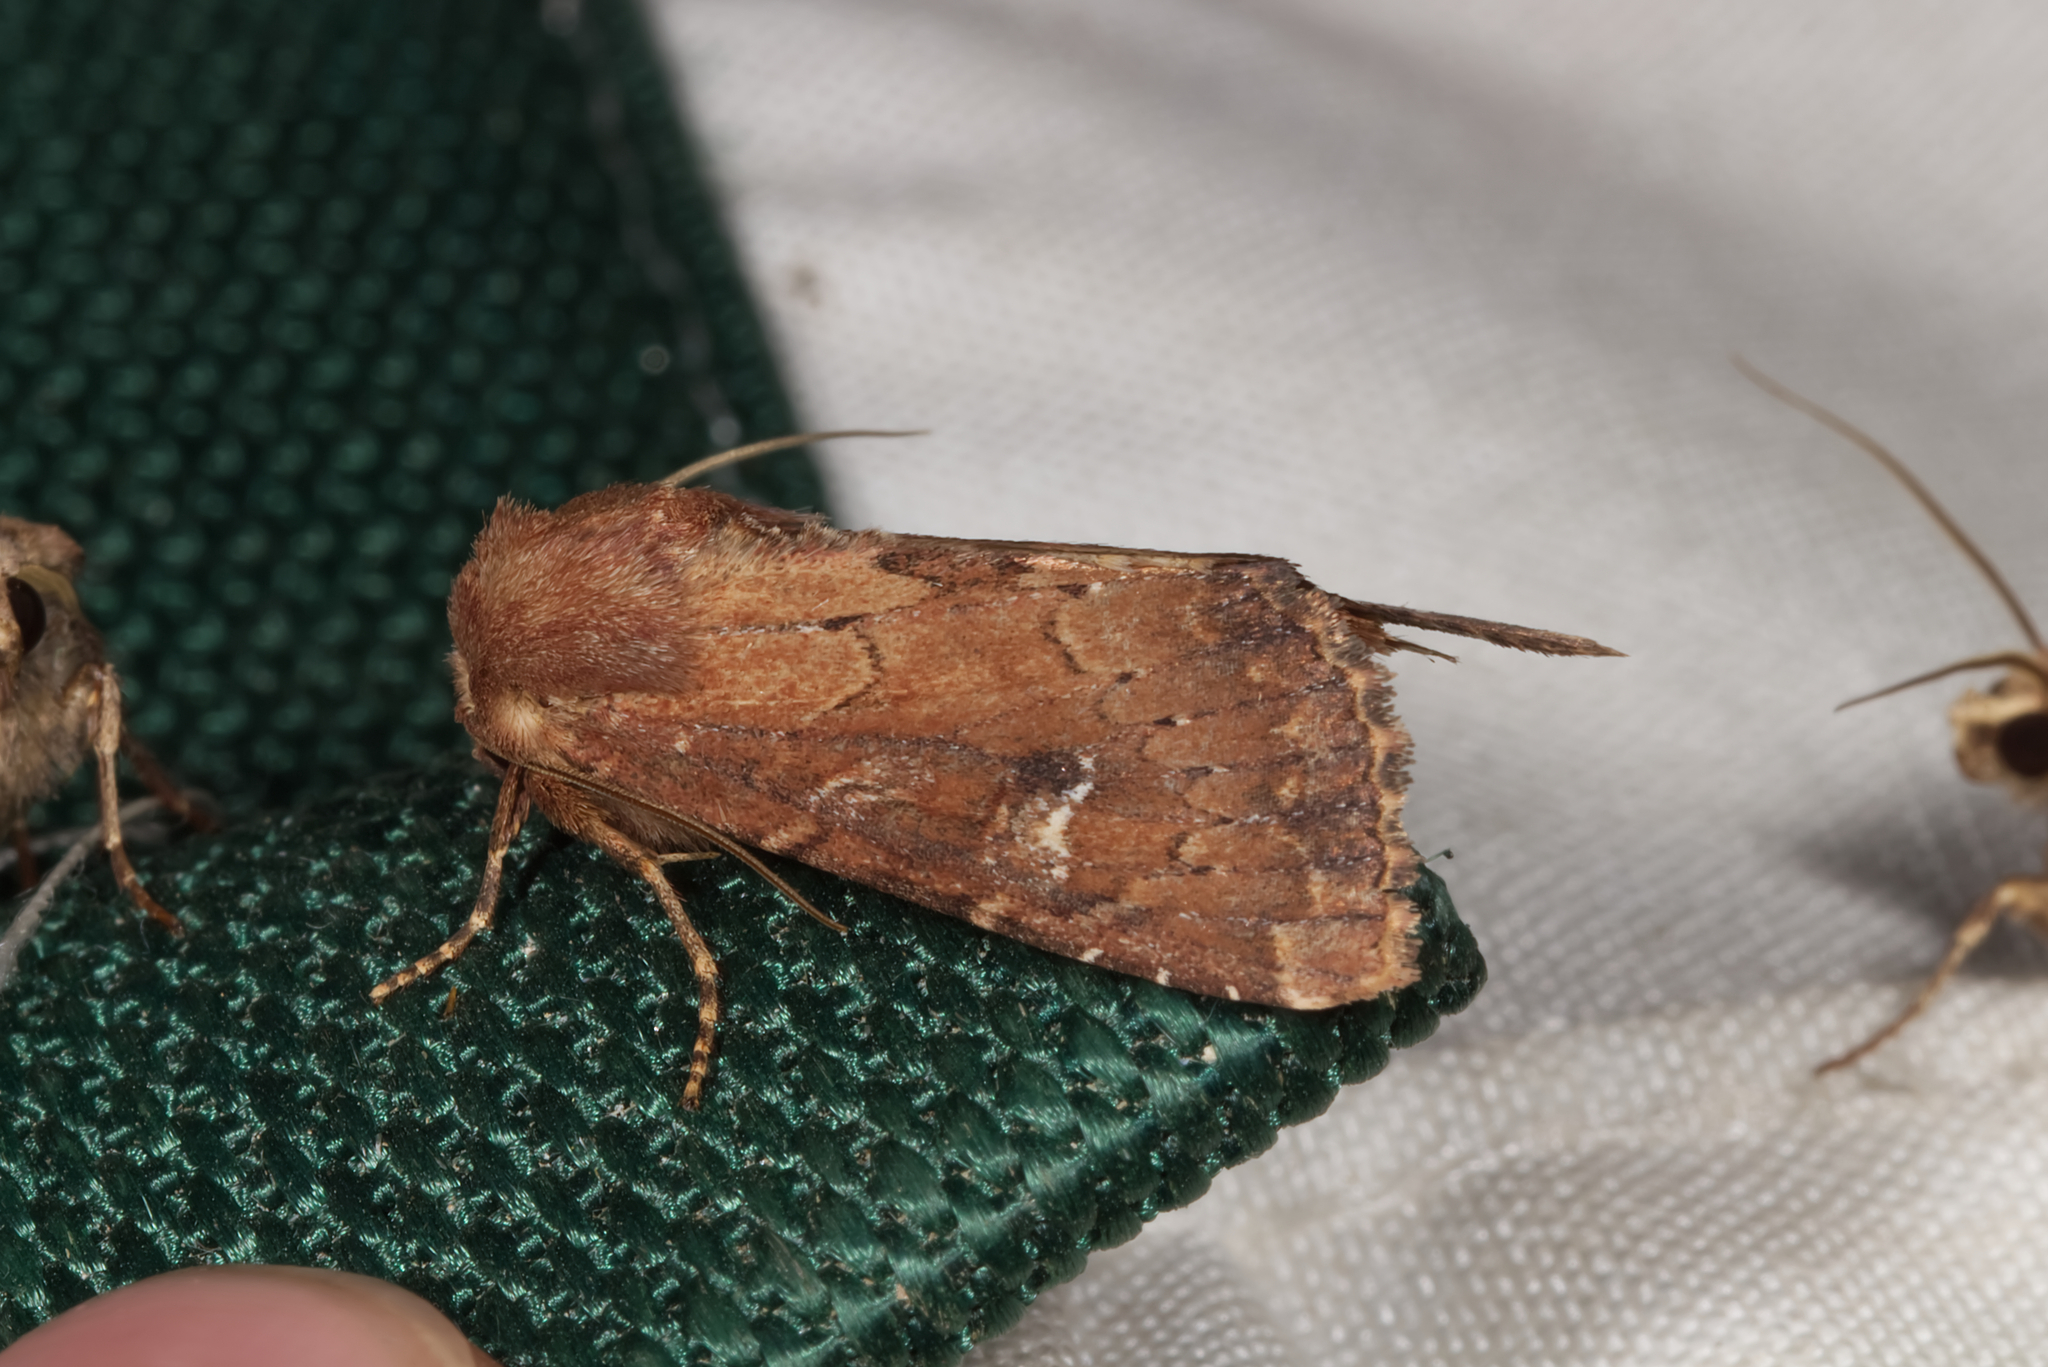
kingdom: Animalia
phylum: Arthropoda
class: Insecta
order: Lepidoptera
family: Noctuidae
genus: Apamea
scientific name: Apamea lateritia
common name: Scarce brindle
